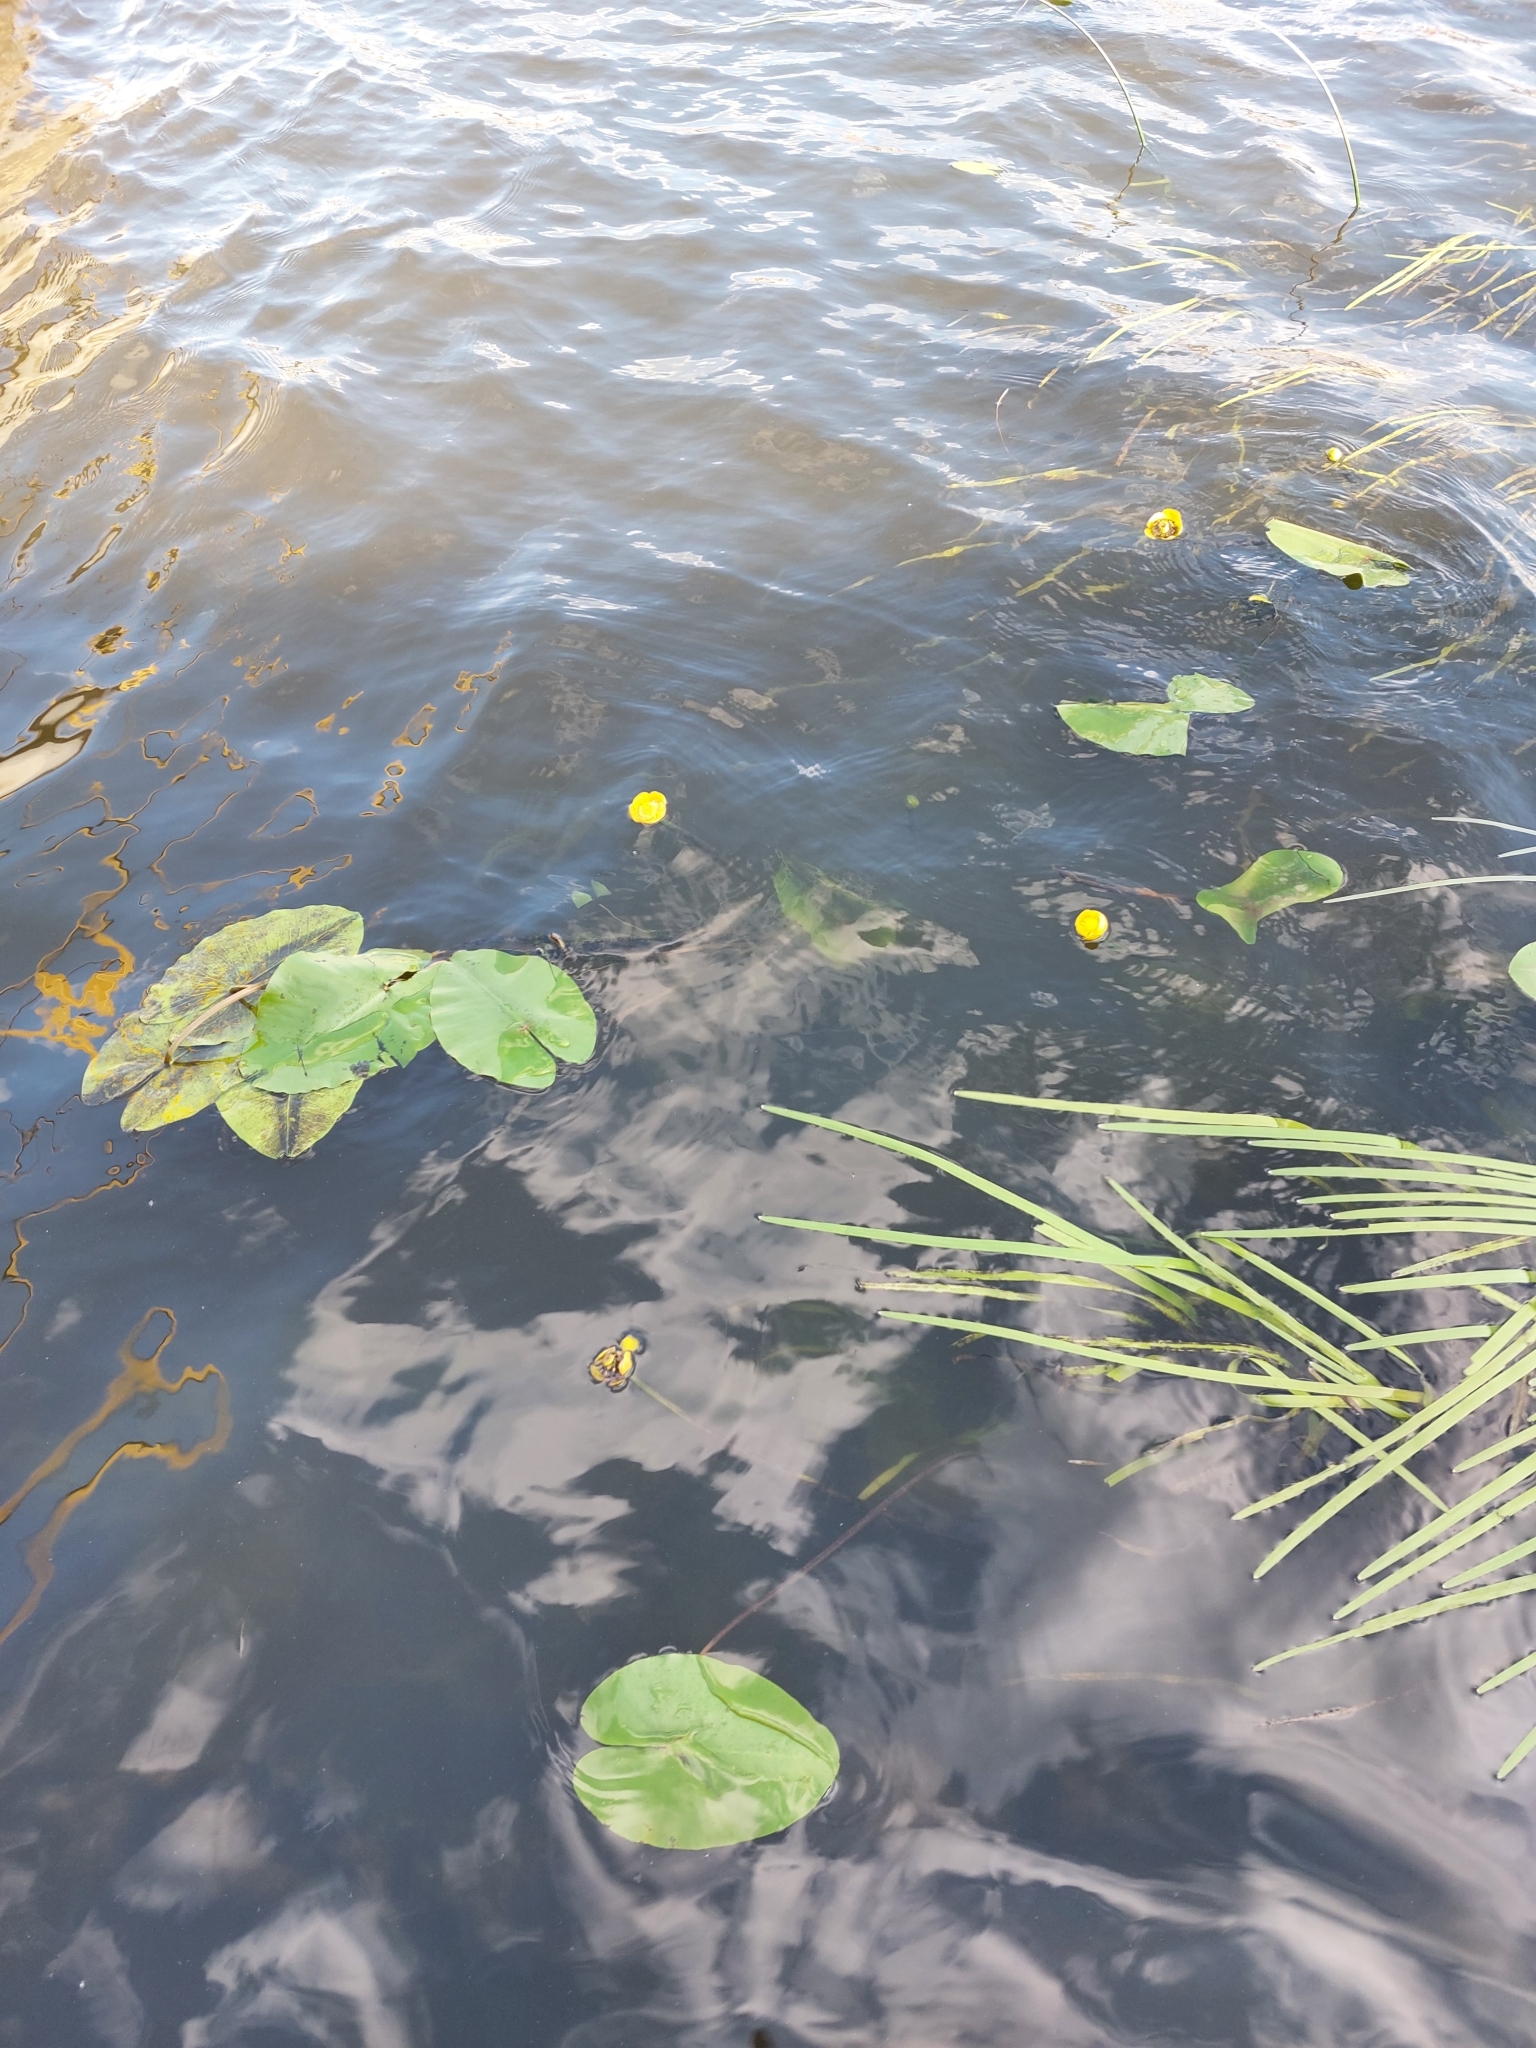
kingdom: Plantae
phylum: Tracheophyta
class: Magnoliopsida
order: Nymphaeales
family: Nymphaeaceae
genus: Nuphar
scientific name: Nuphar lutea
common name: Yellow water-lily
